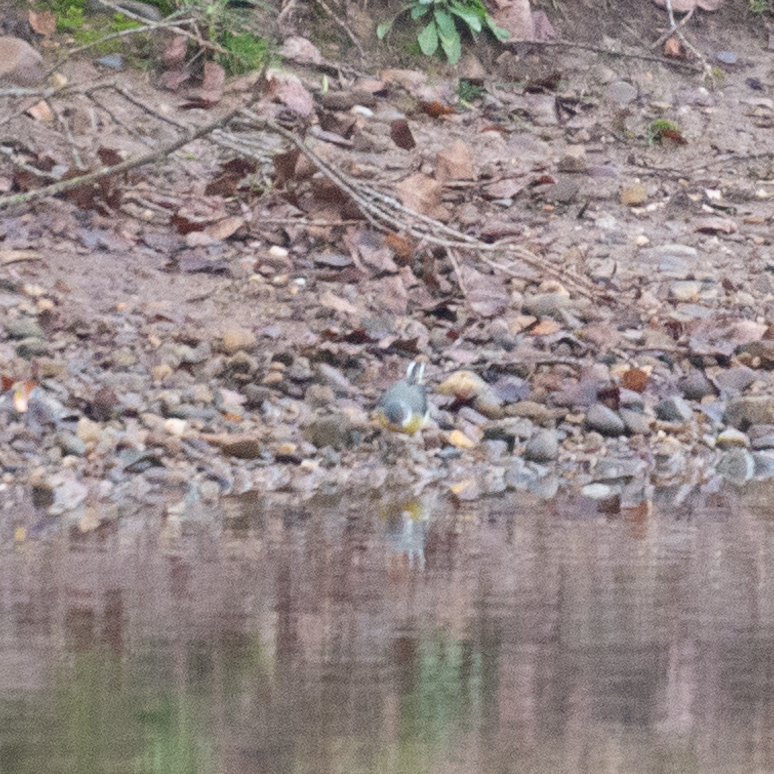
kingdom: Animalia
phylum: Chordata
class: Aves
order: Passeriformes
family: Motacillidae
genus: Motacilla
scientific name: Motacilla cinerea
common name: Grey wagtail
